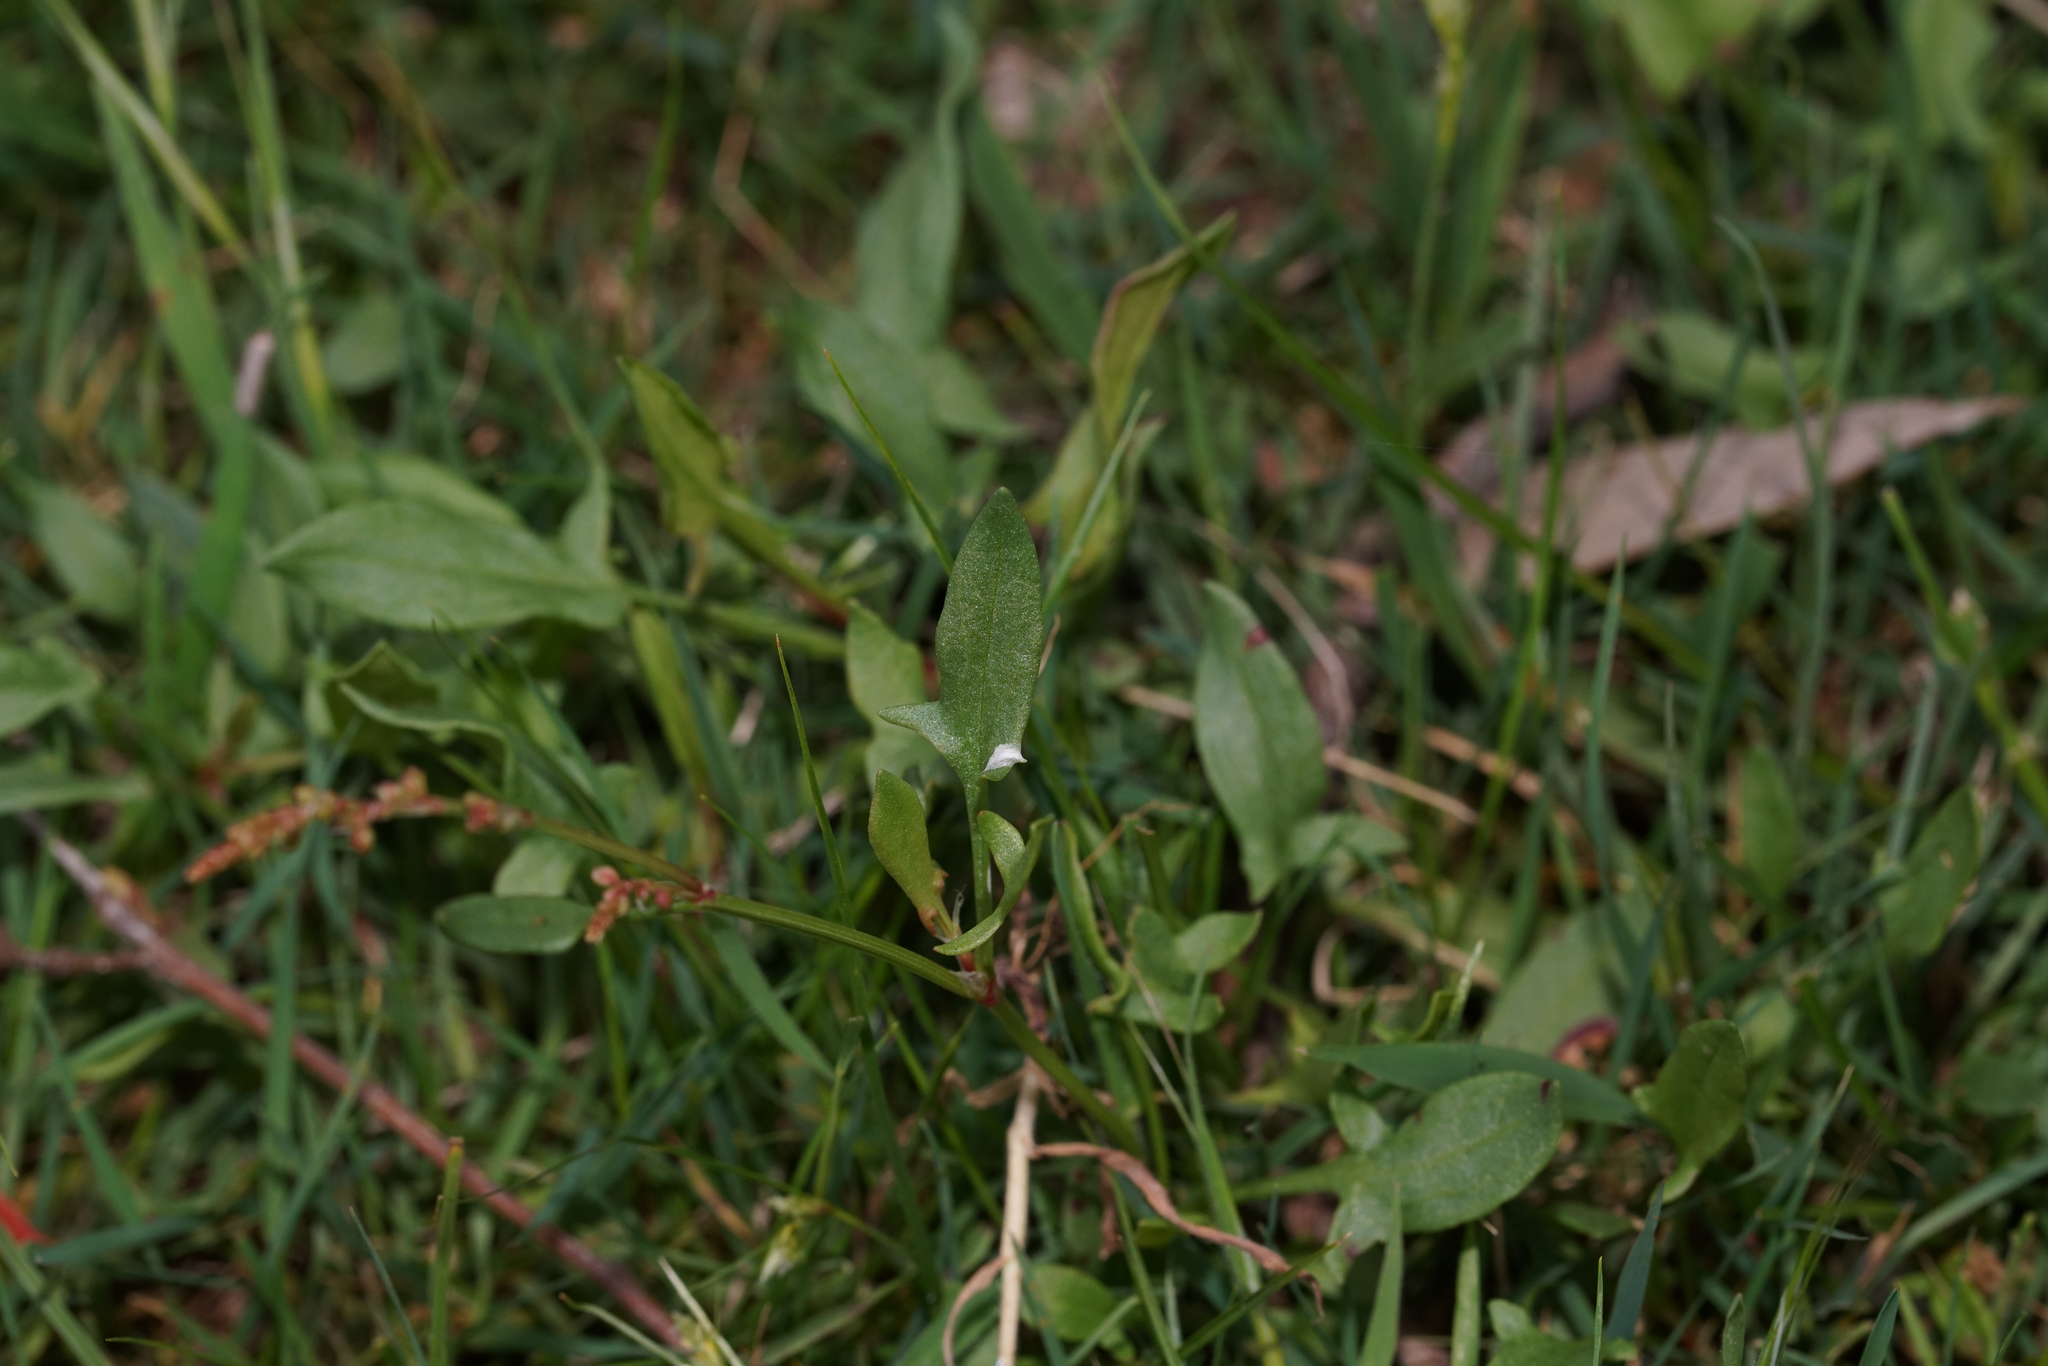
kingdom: Plantae
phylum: Tracheophyta
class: Magnoliopsida
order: Caryophyllales
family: Polygonaceae
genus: Rumex
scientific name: Rumex acetosella
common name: Common sheep sorrel
